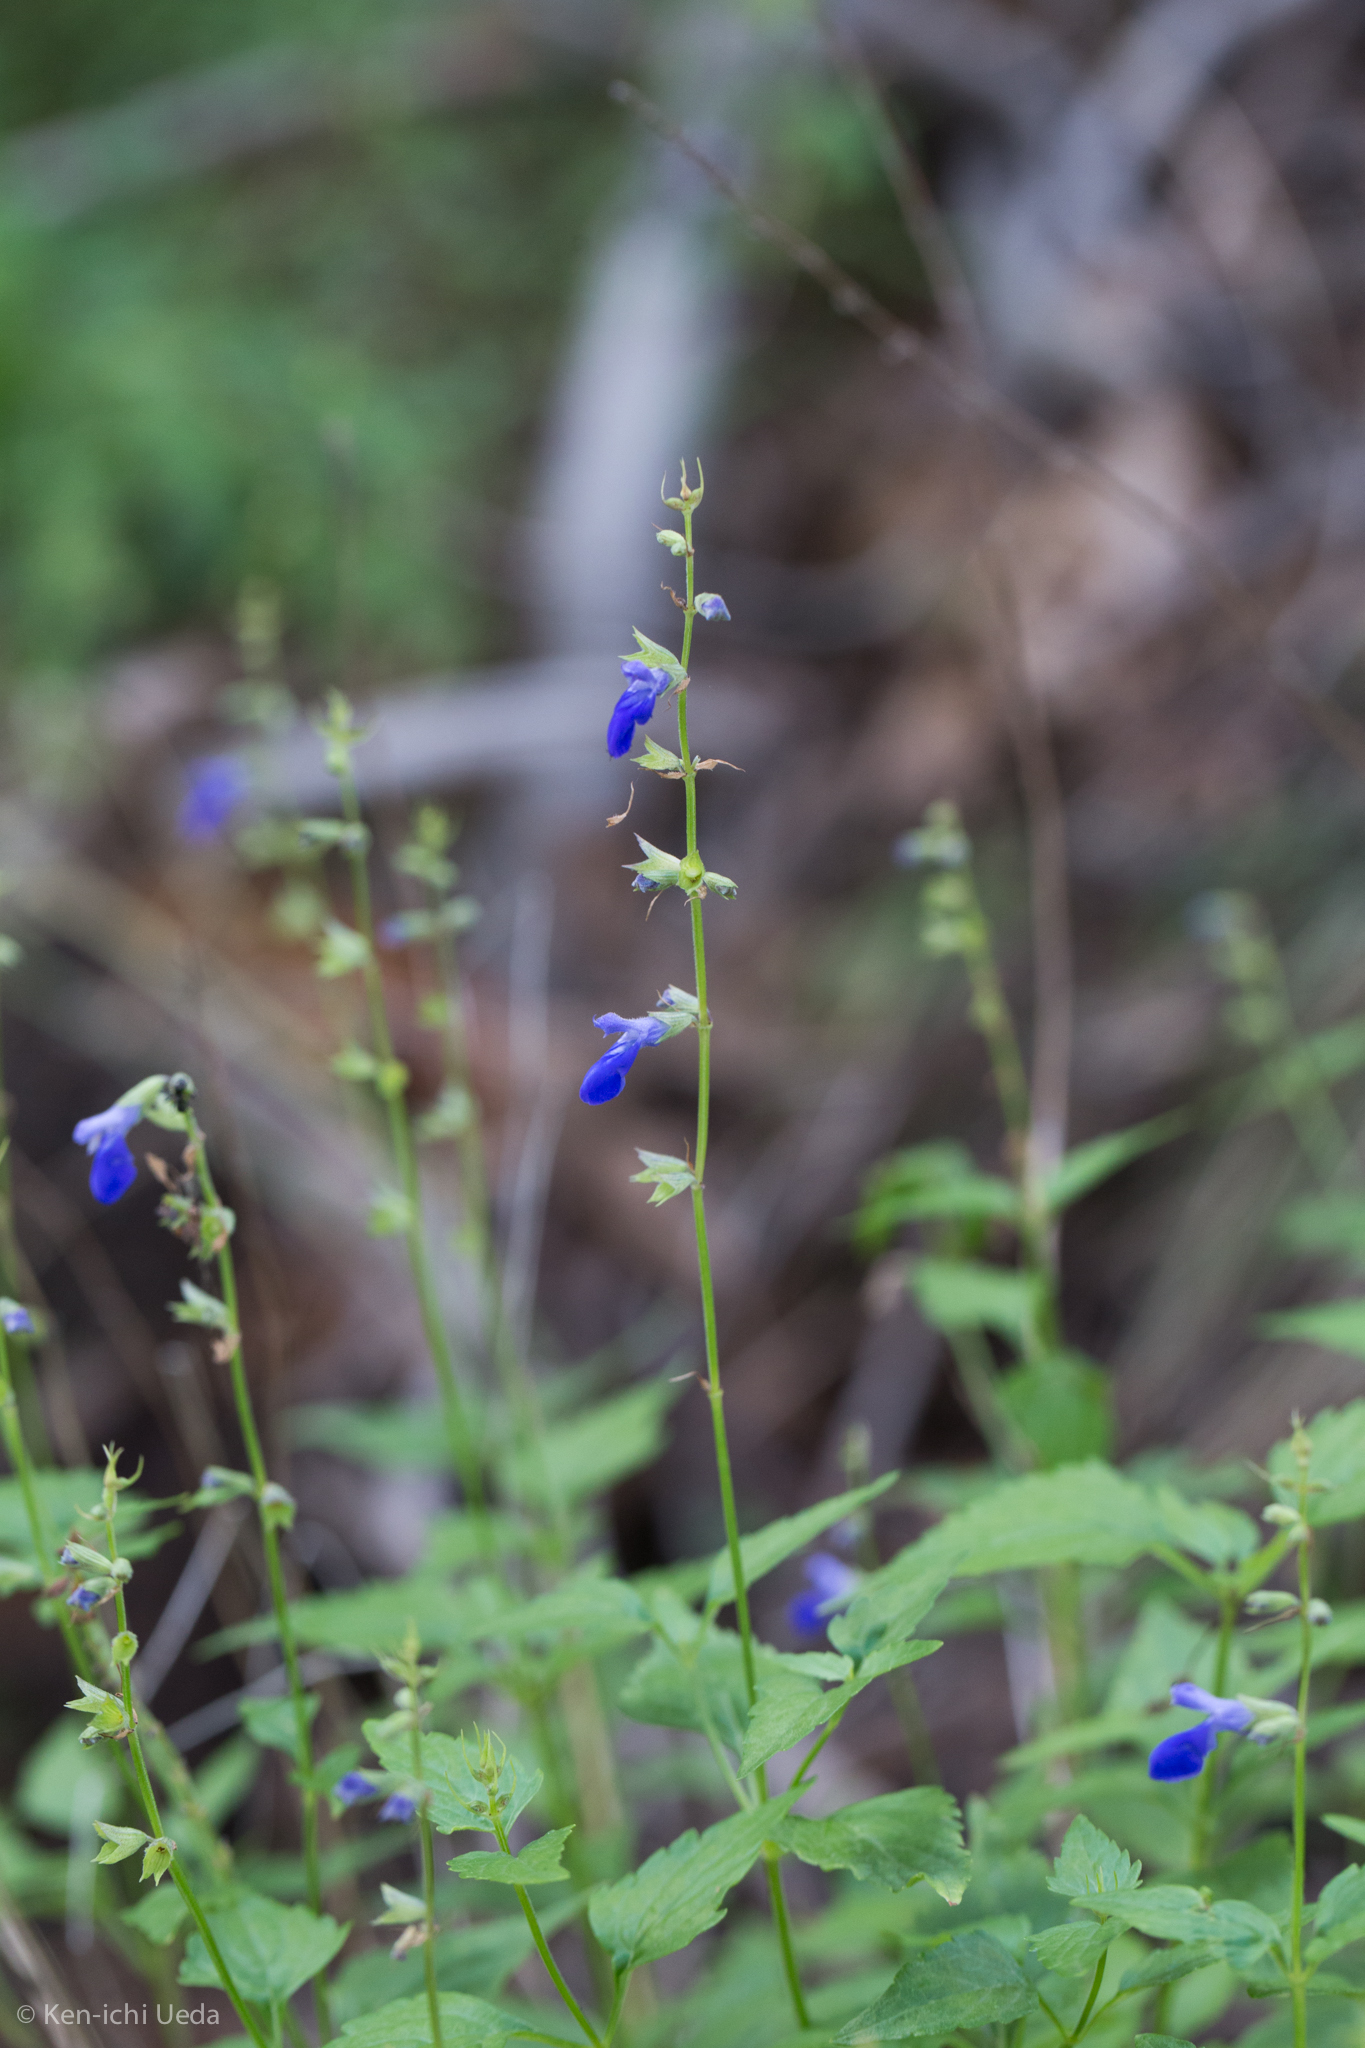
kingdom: Plantae
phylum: Tracheophyta
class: Magnoliopsida
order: Lamiales
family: Lamiaceae
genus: Salvia
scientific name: Salvia arizonica
